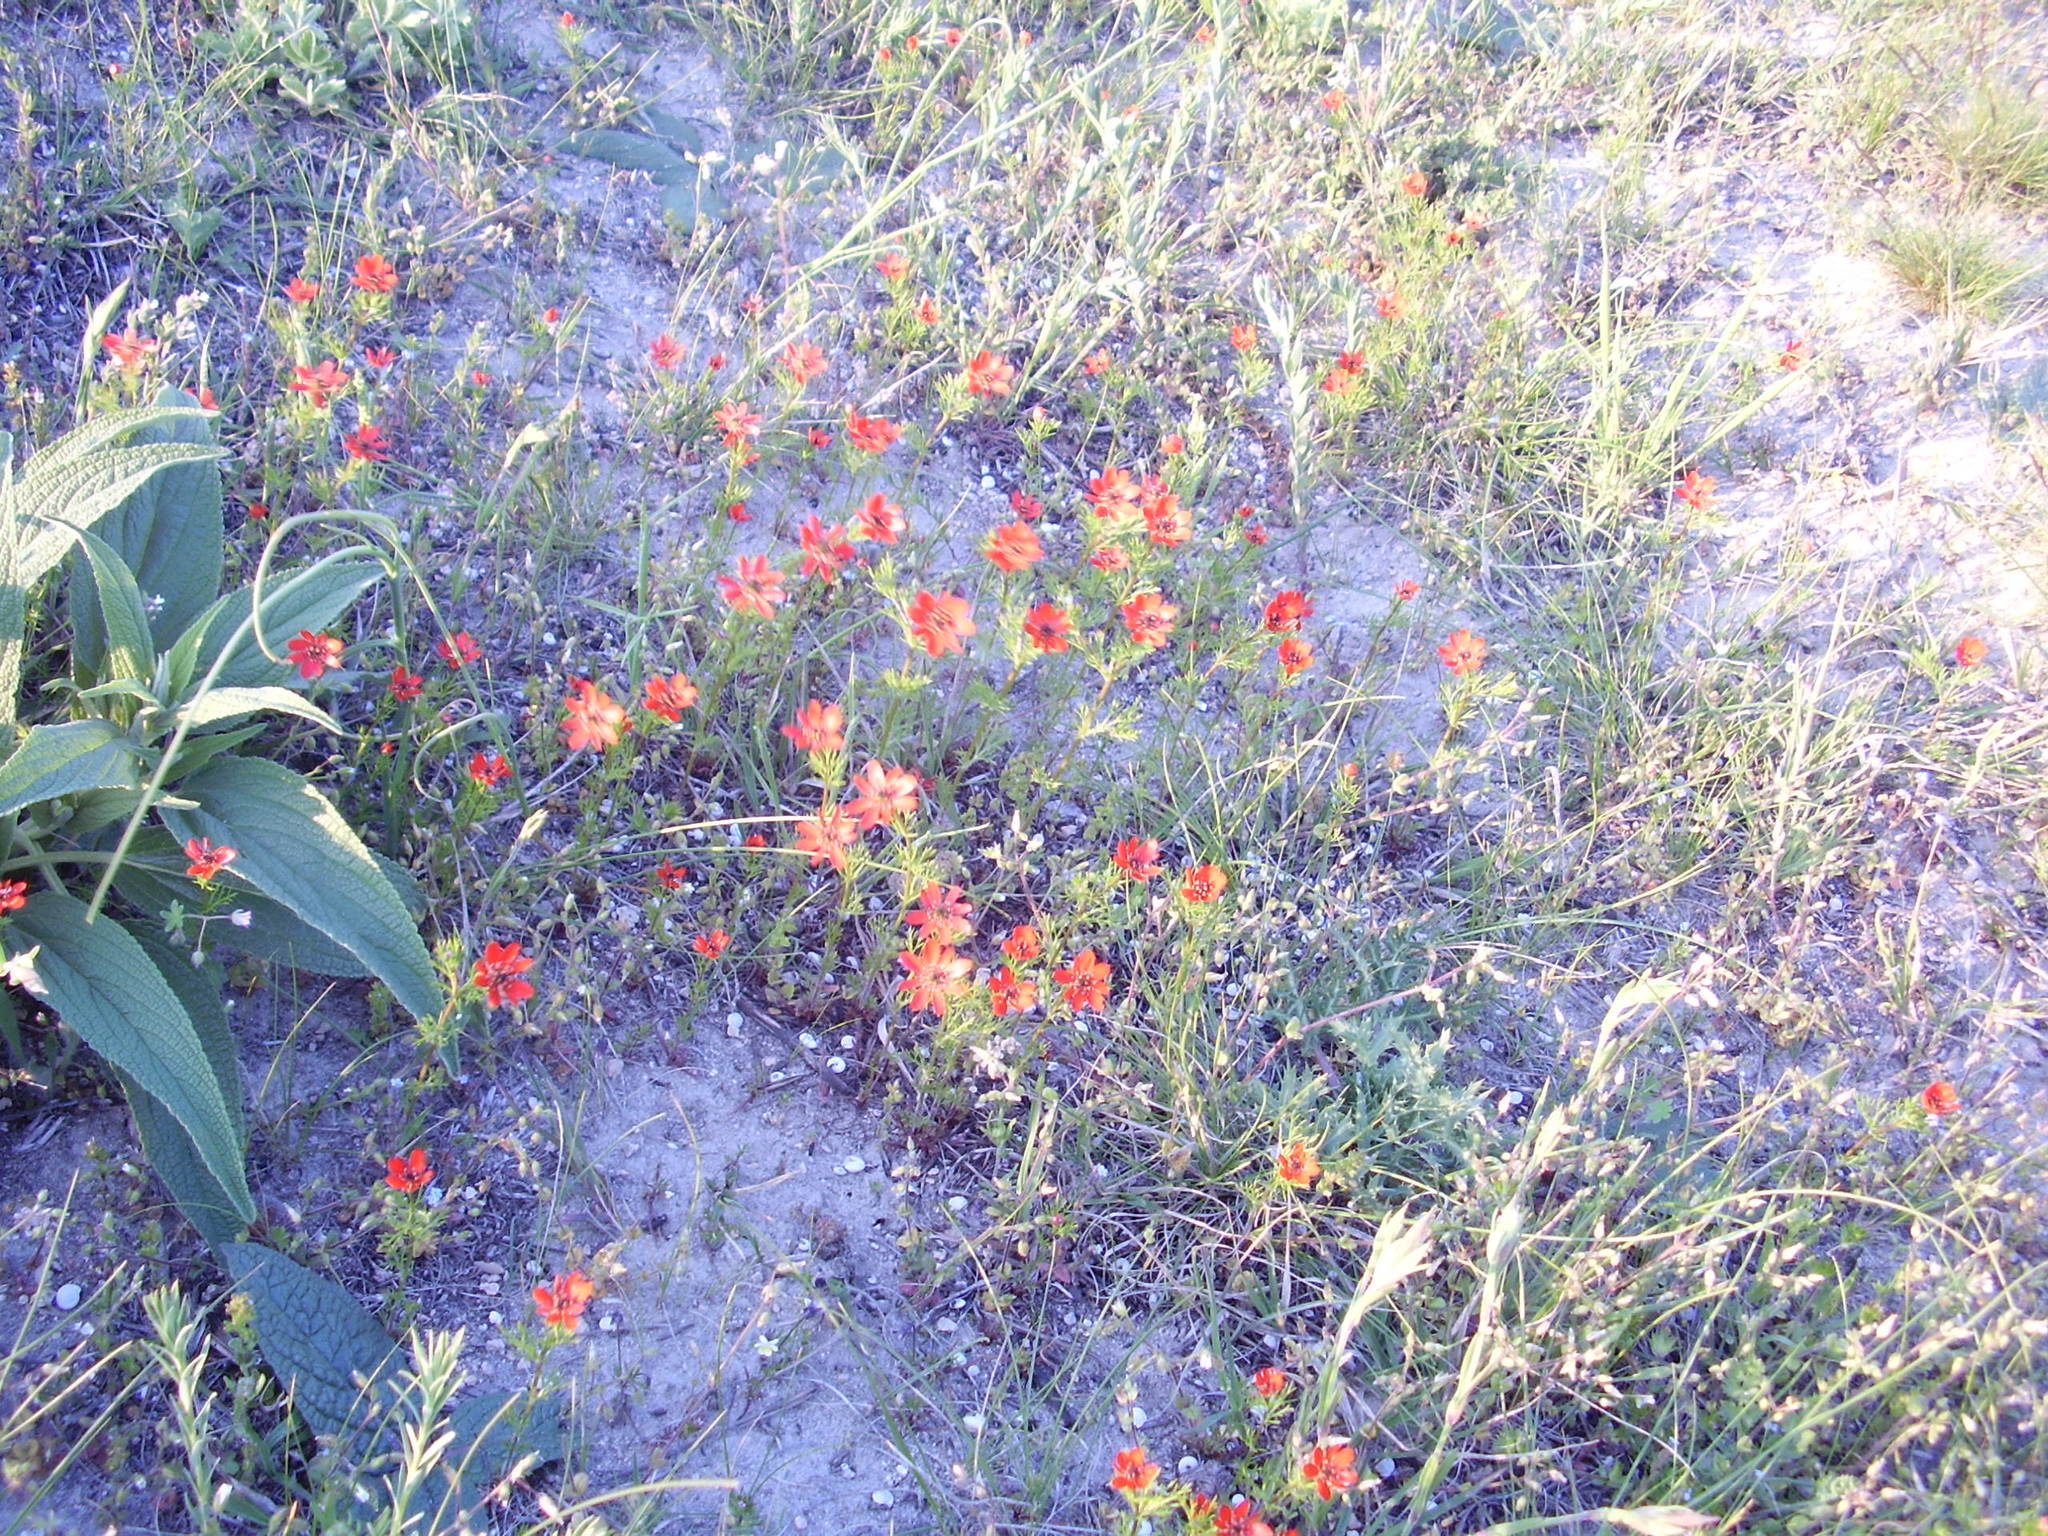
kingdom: Plantae
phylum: Tracheophyta
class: Magnoliopsida
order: Ranunculales
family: Ranunculaceae
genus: Adonis
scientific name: Adonis flammea
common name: Large pheasant's-eye
